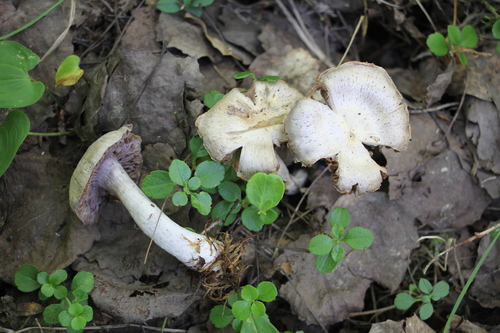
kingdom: Fungi
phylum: Basidiomycota
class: Agaricomycetes
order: Agaricales
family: Cortinariaceae
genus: Cortinarius
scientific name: Cortinarius alboviolaceus
